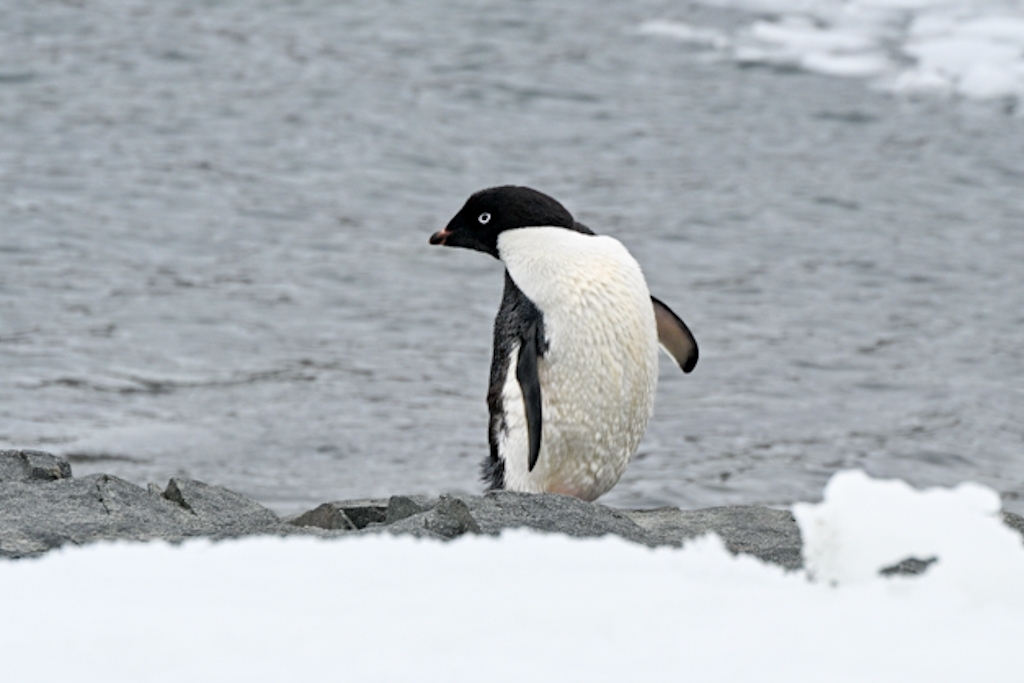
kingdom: Animalia
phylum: Chordata
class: Aves
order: Sphenisciformes
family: Spheniscidae
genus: Pygoscelis
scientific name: Pygoscelis adeliae
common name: Adelie penguin
